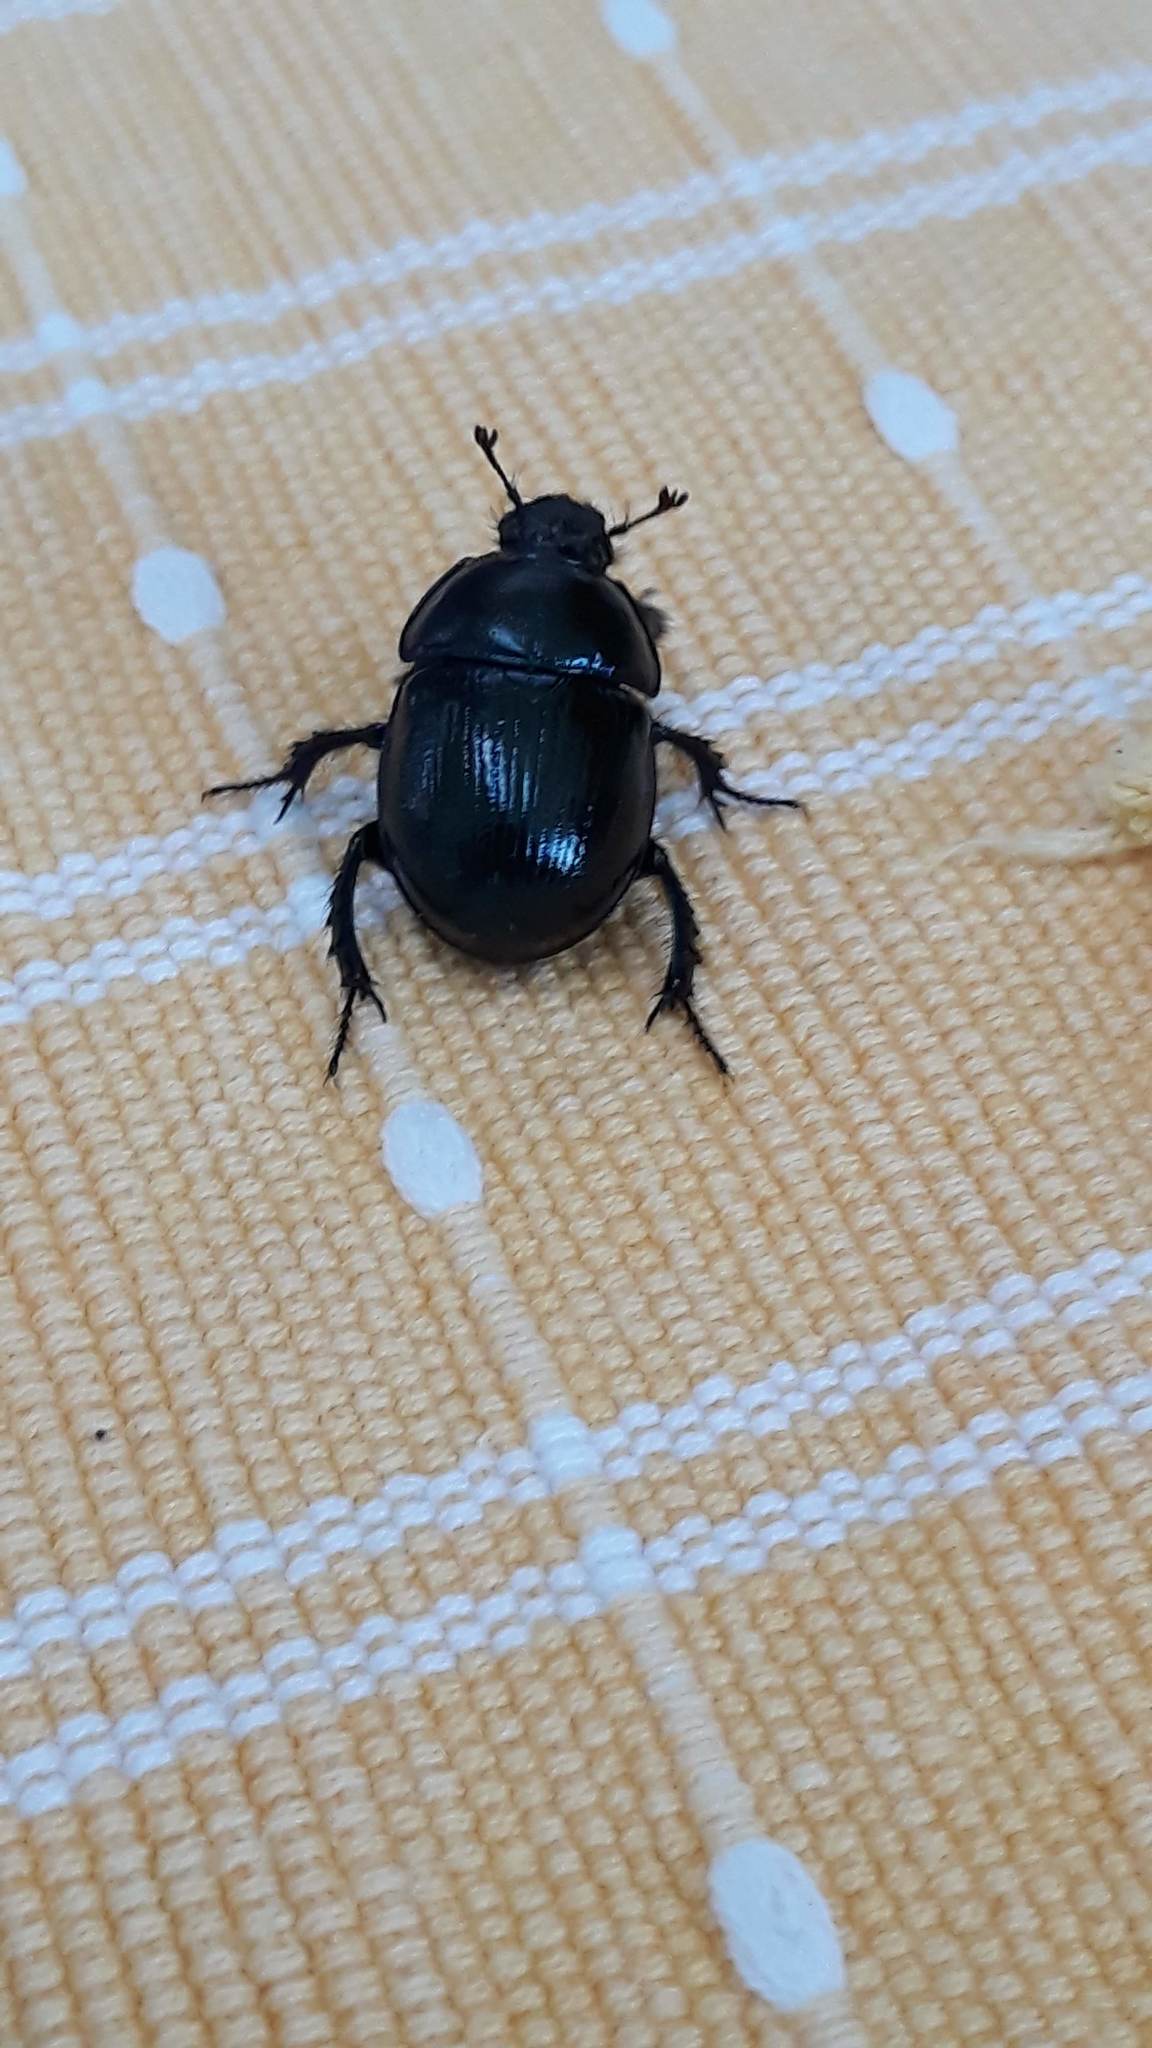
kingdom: Animalia
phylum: Arthropoda
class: Insecta
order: Coleoptera
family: Geotrupidae
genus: Anoplotrupes
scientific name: Anoplotrupes stercorosus
